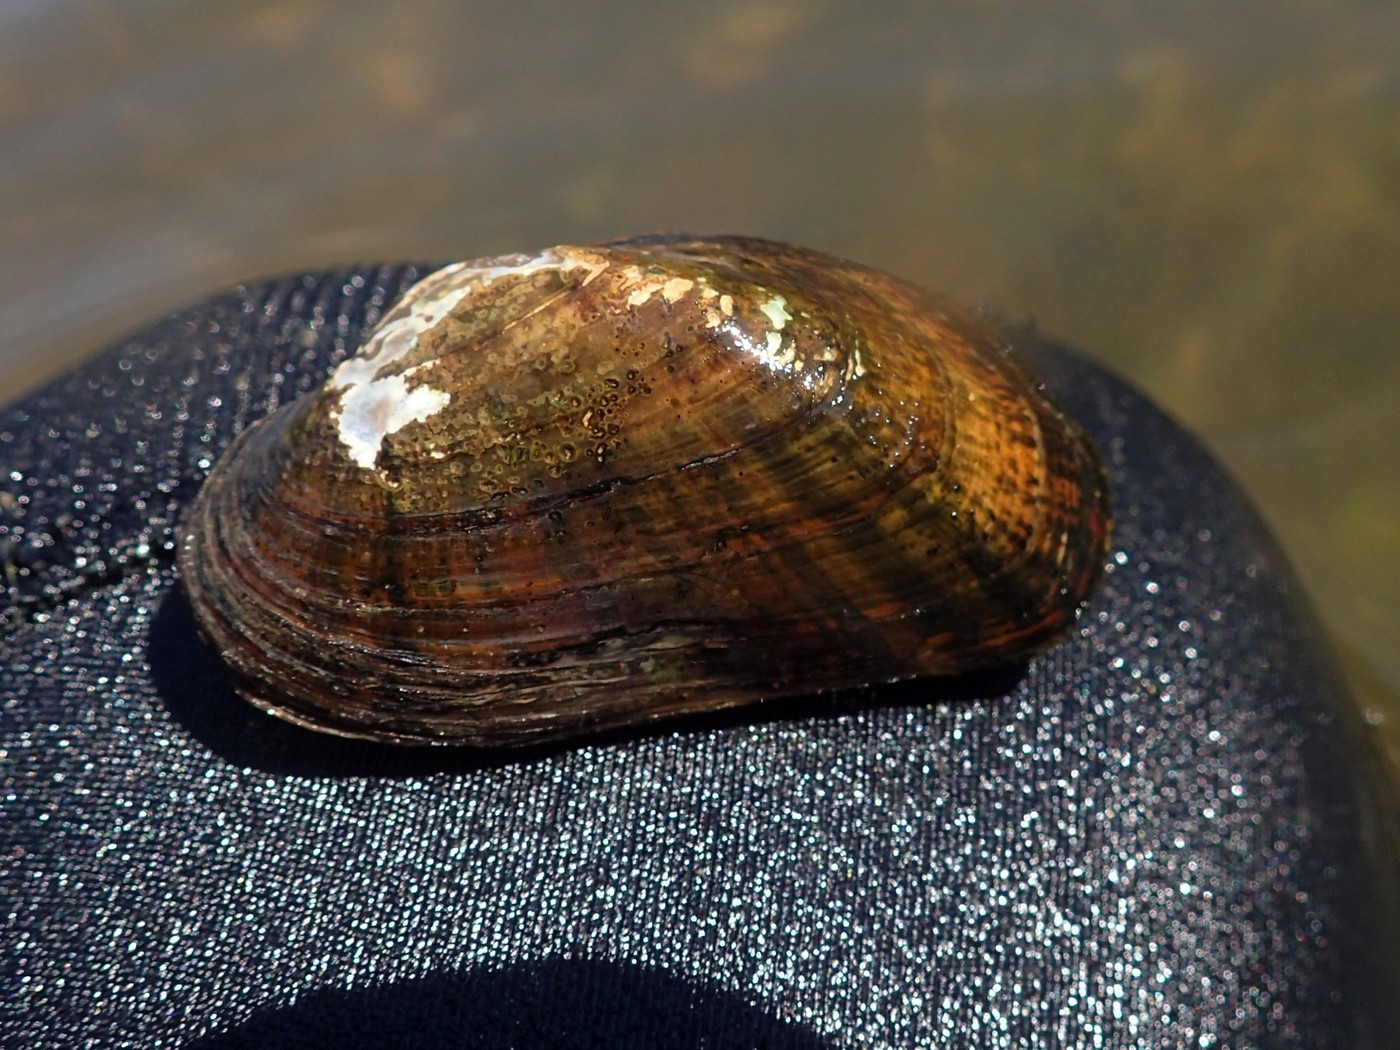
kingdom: Animalia
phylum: Mollusca
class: Bivalvia
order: Unionida
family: Unionidae
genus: Alasmidonta
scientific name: Alasmidonta varicosa
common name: Brook floater
